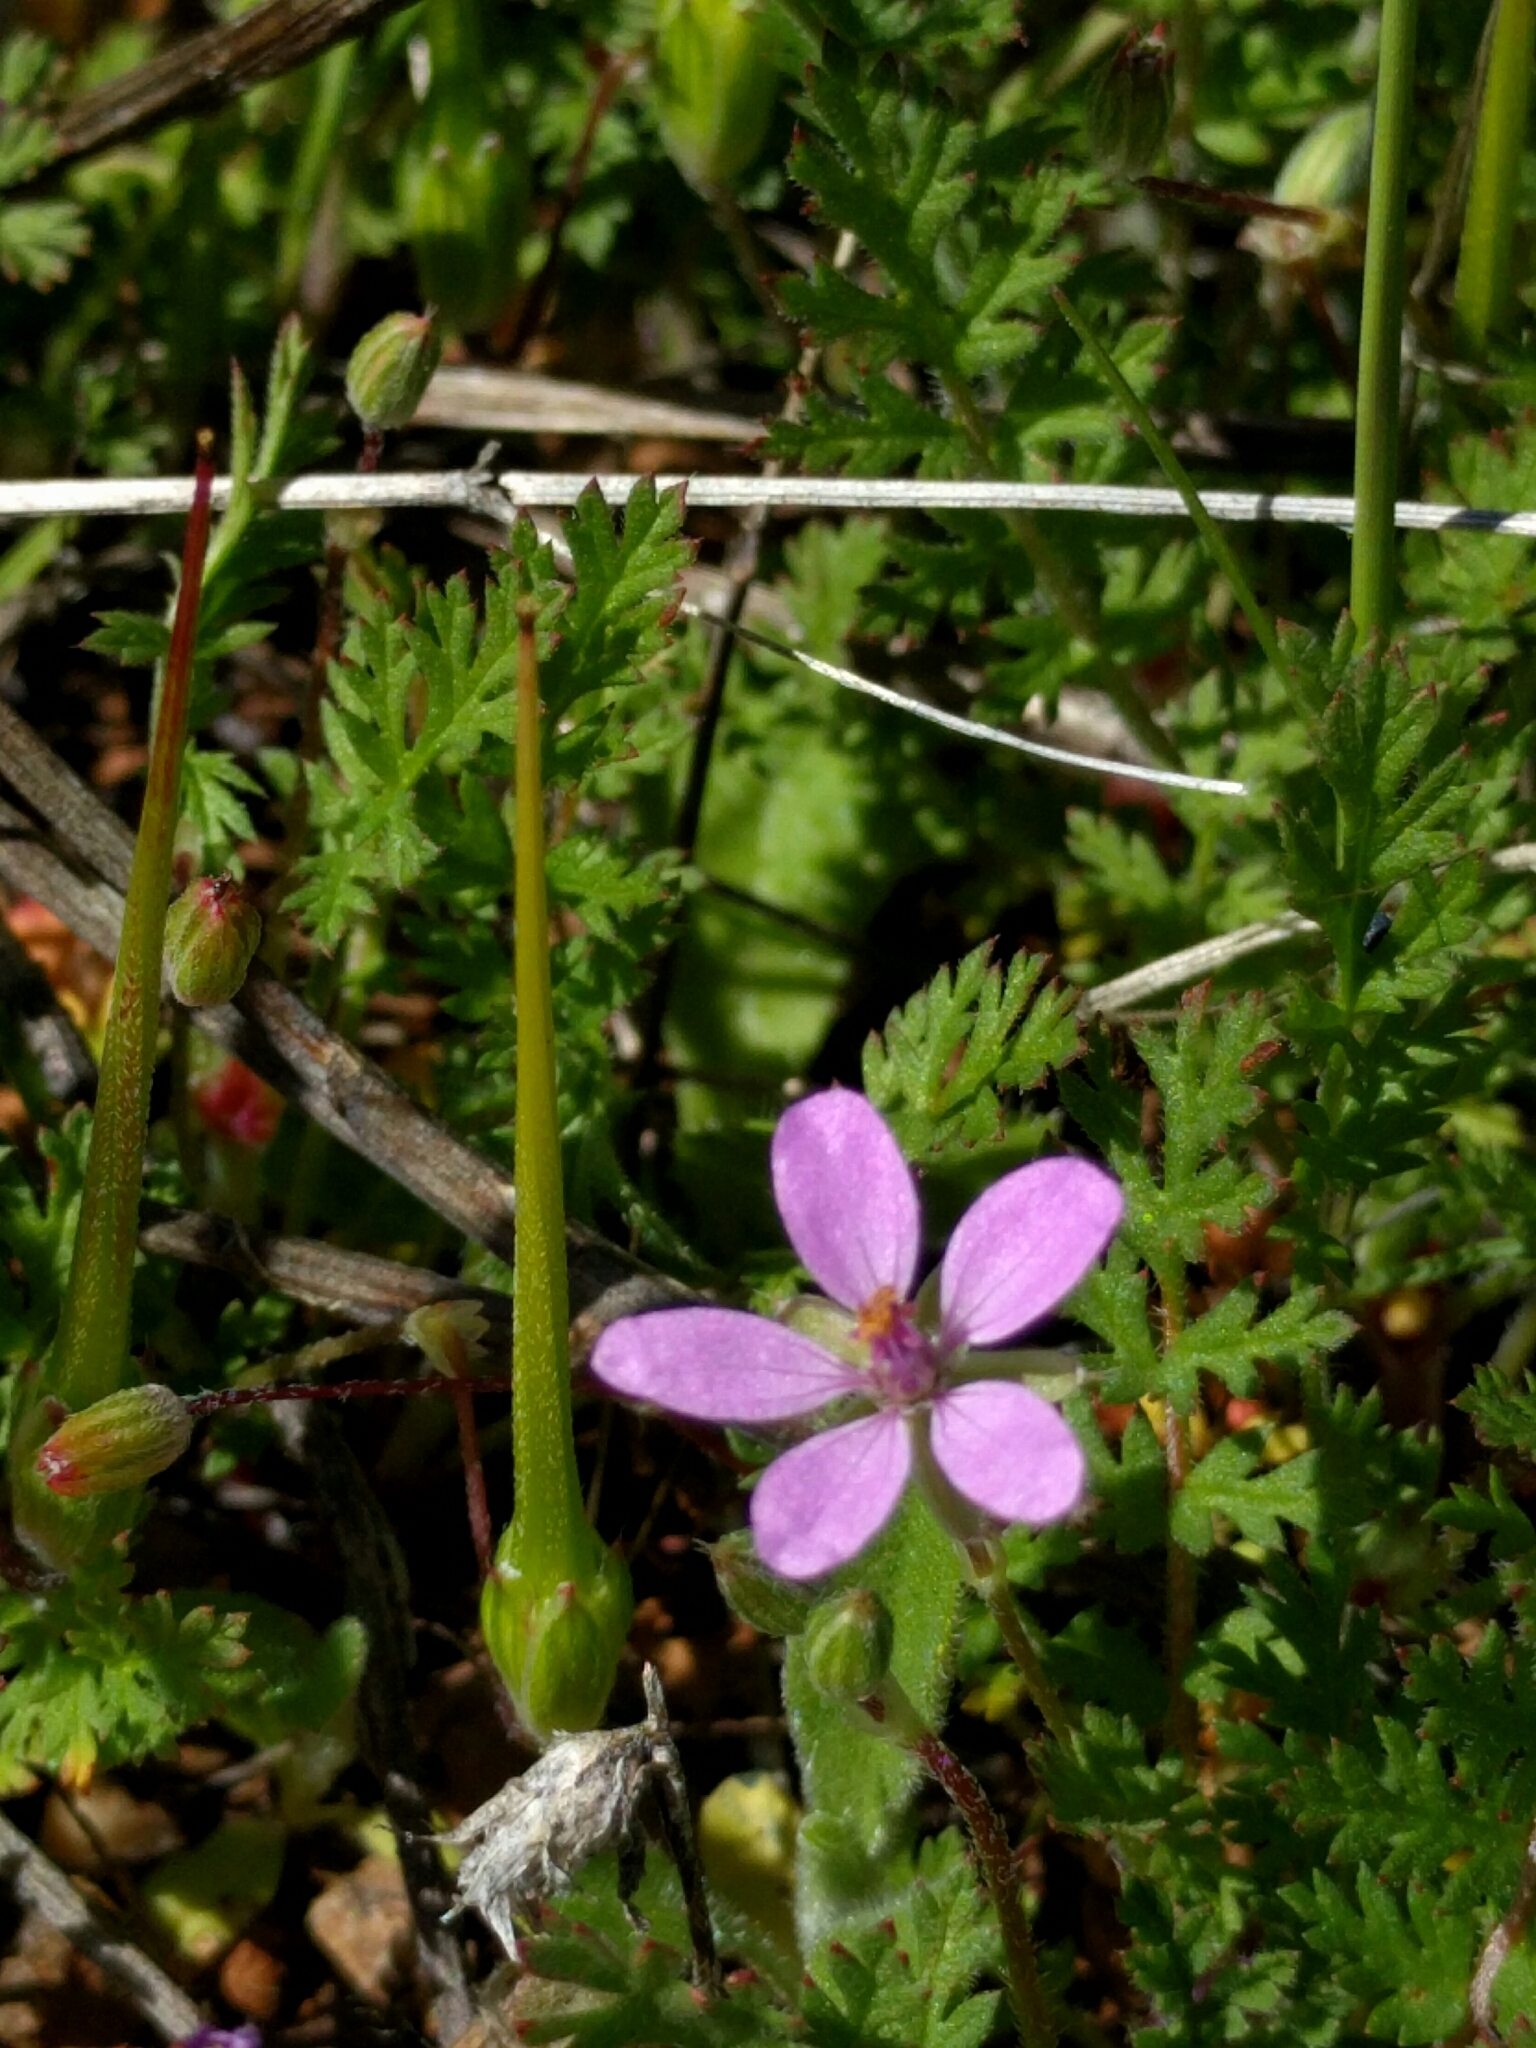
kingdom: Plantae
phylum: Tracheophyta
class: Magnoliopsida
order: Geraniales
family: Geraniaceae
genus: Erodium
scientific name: Erodium cicutarium
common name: Common stork's-bill
